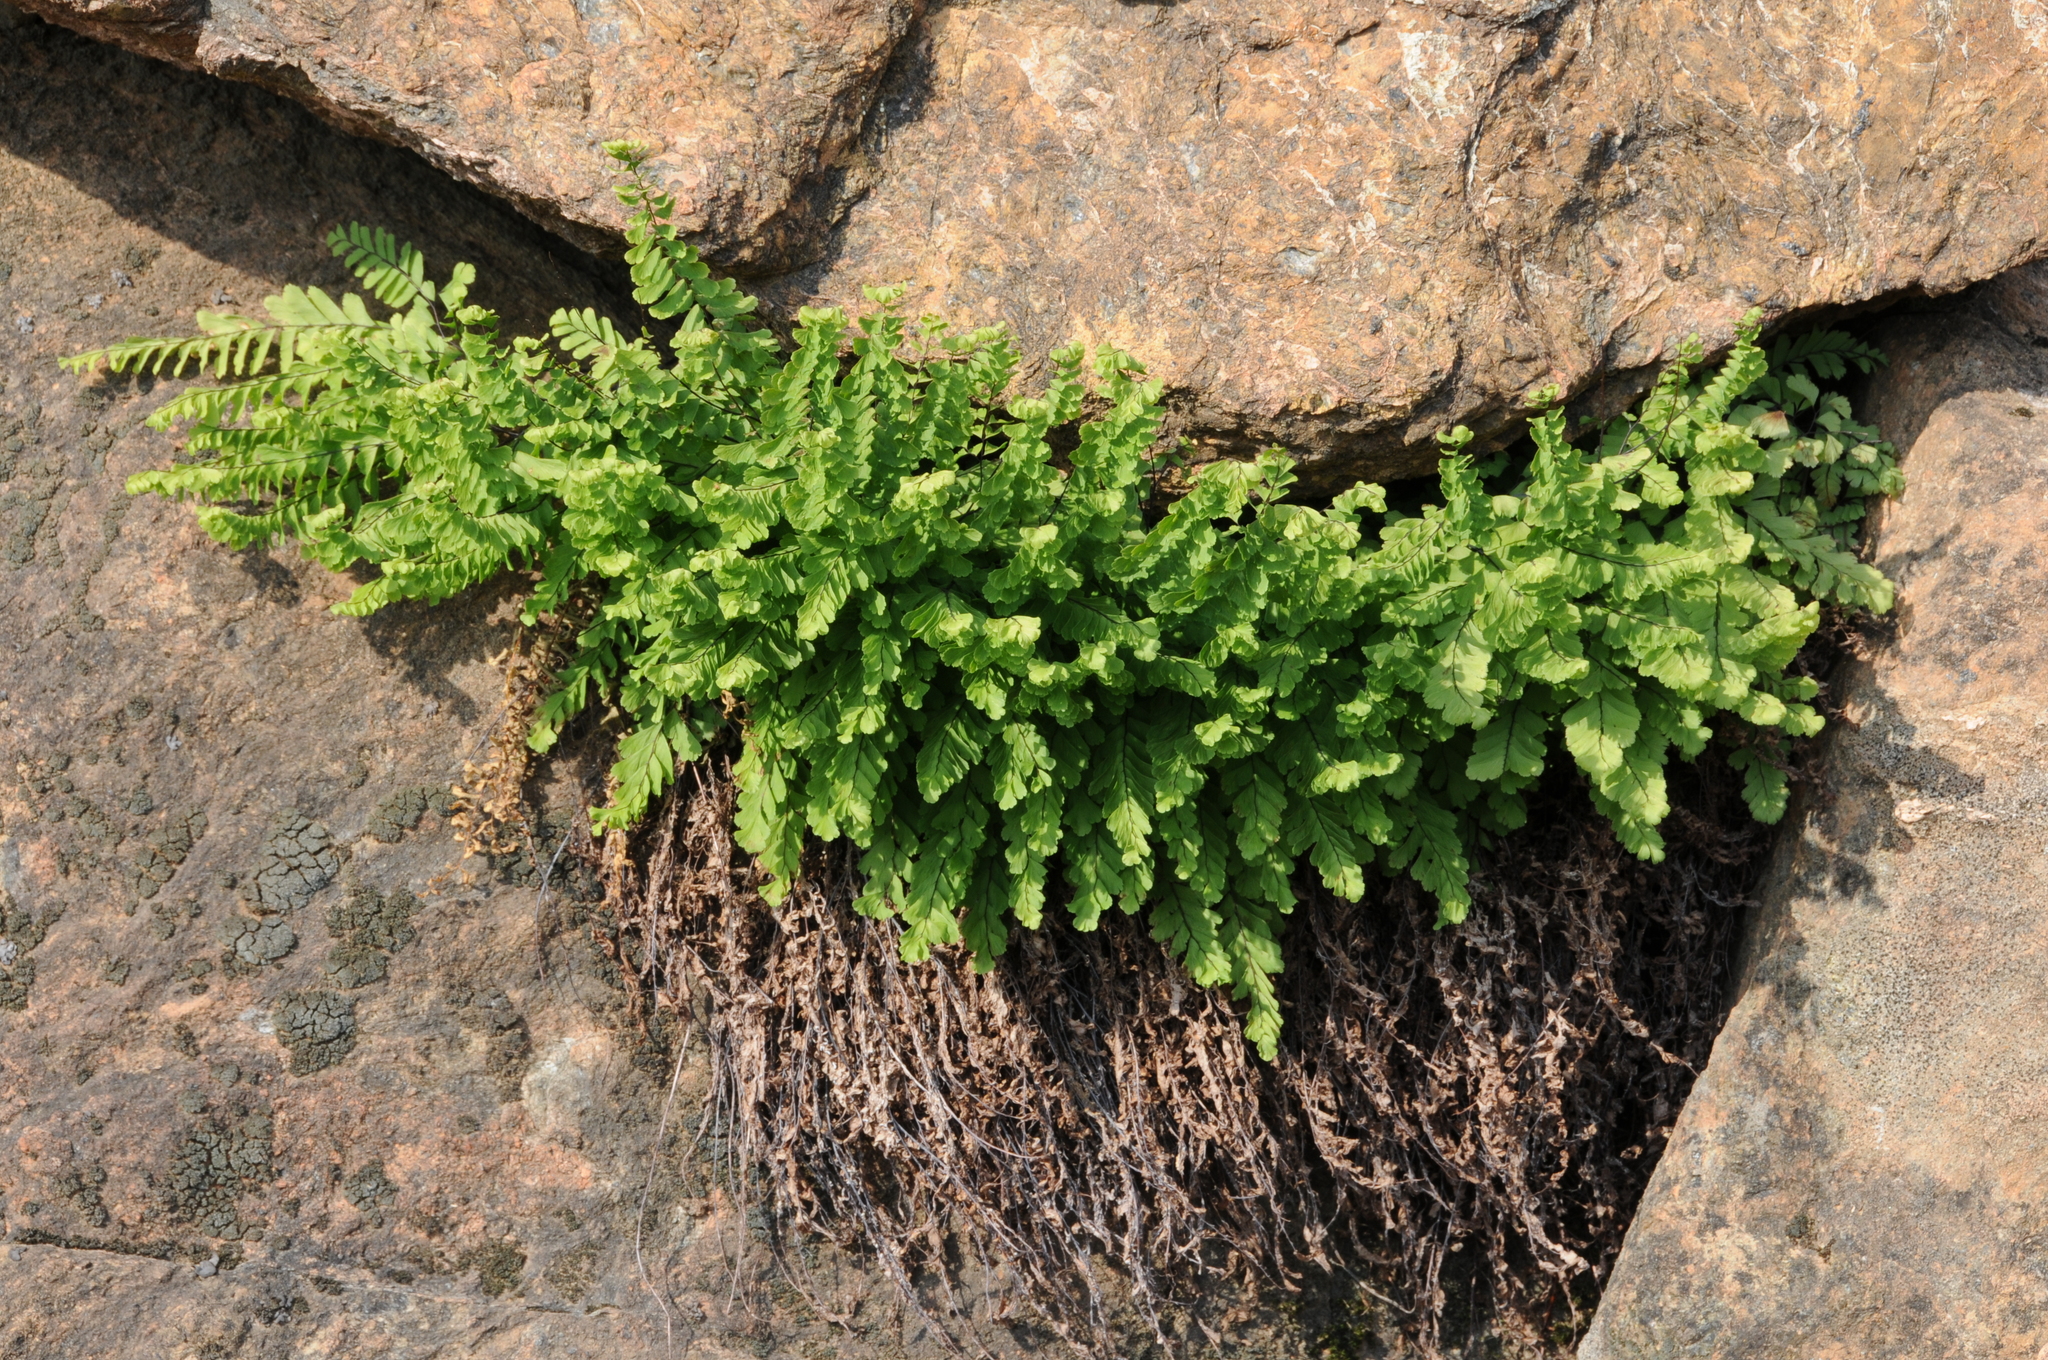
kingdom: Plantae
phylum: Tracheophyta
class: Polypodiopsida
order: Polypodiales
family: Pteridaceae
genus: Adiantum
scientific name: Adiantum aleuticum
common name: Aleutian maidenhair fern
